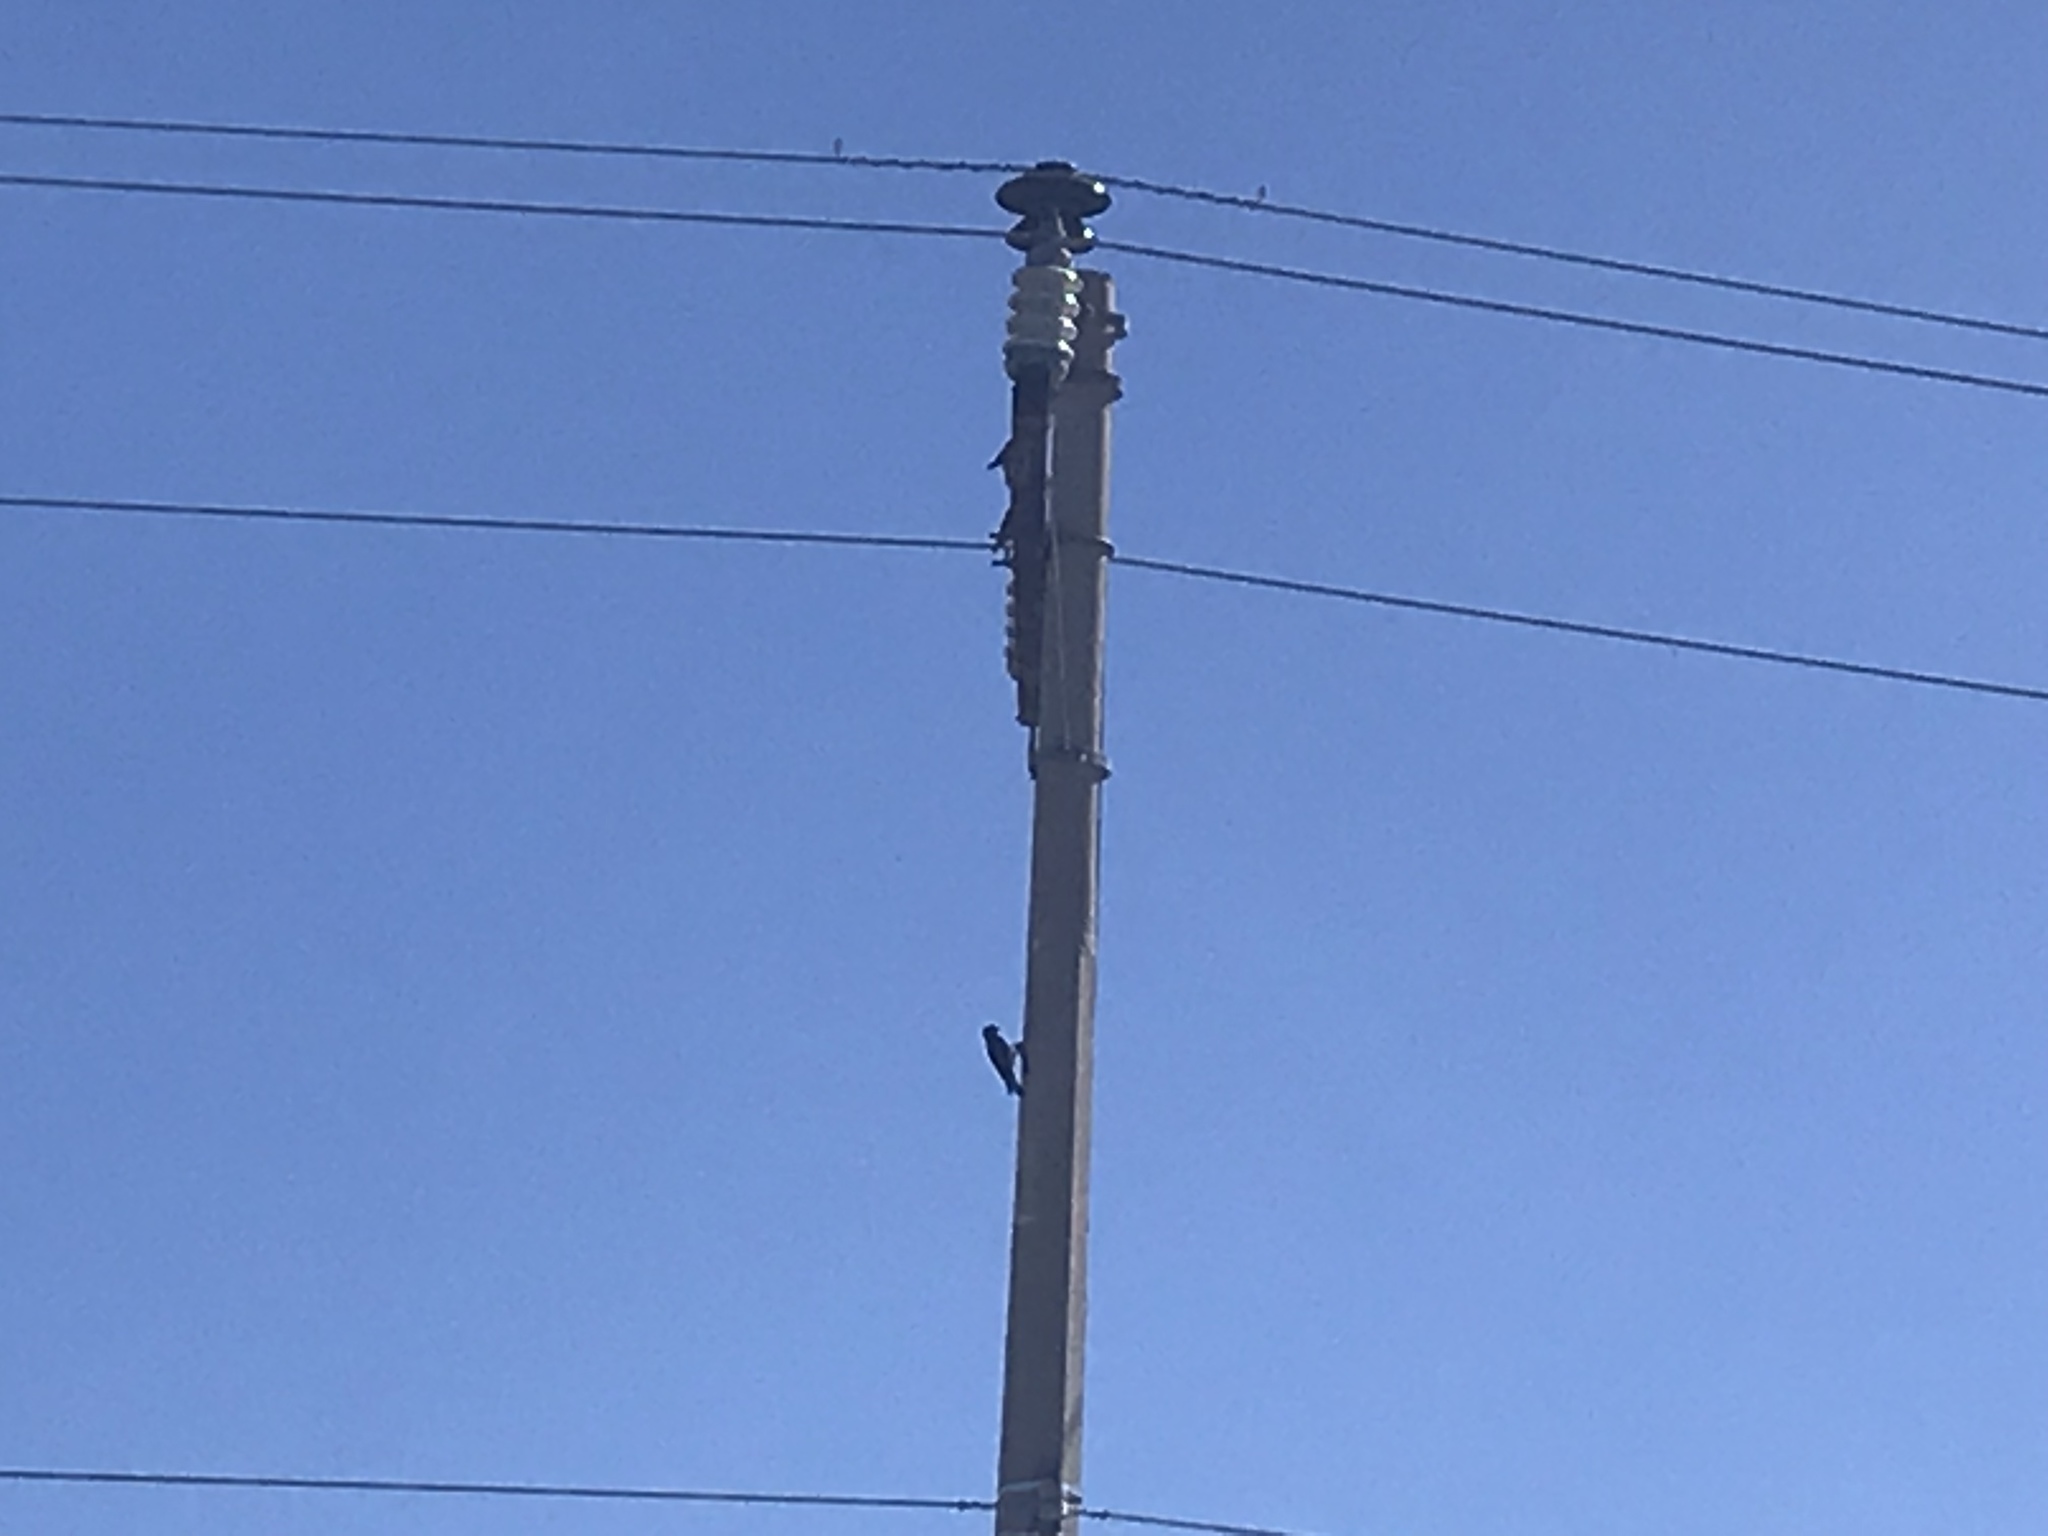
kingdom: Animalia
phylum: Chordata
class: Aves
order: Piciformes
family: Picidae
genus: Melanerpes
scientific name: Melanerpes formicivorus
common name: Acorn woodpecker
